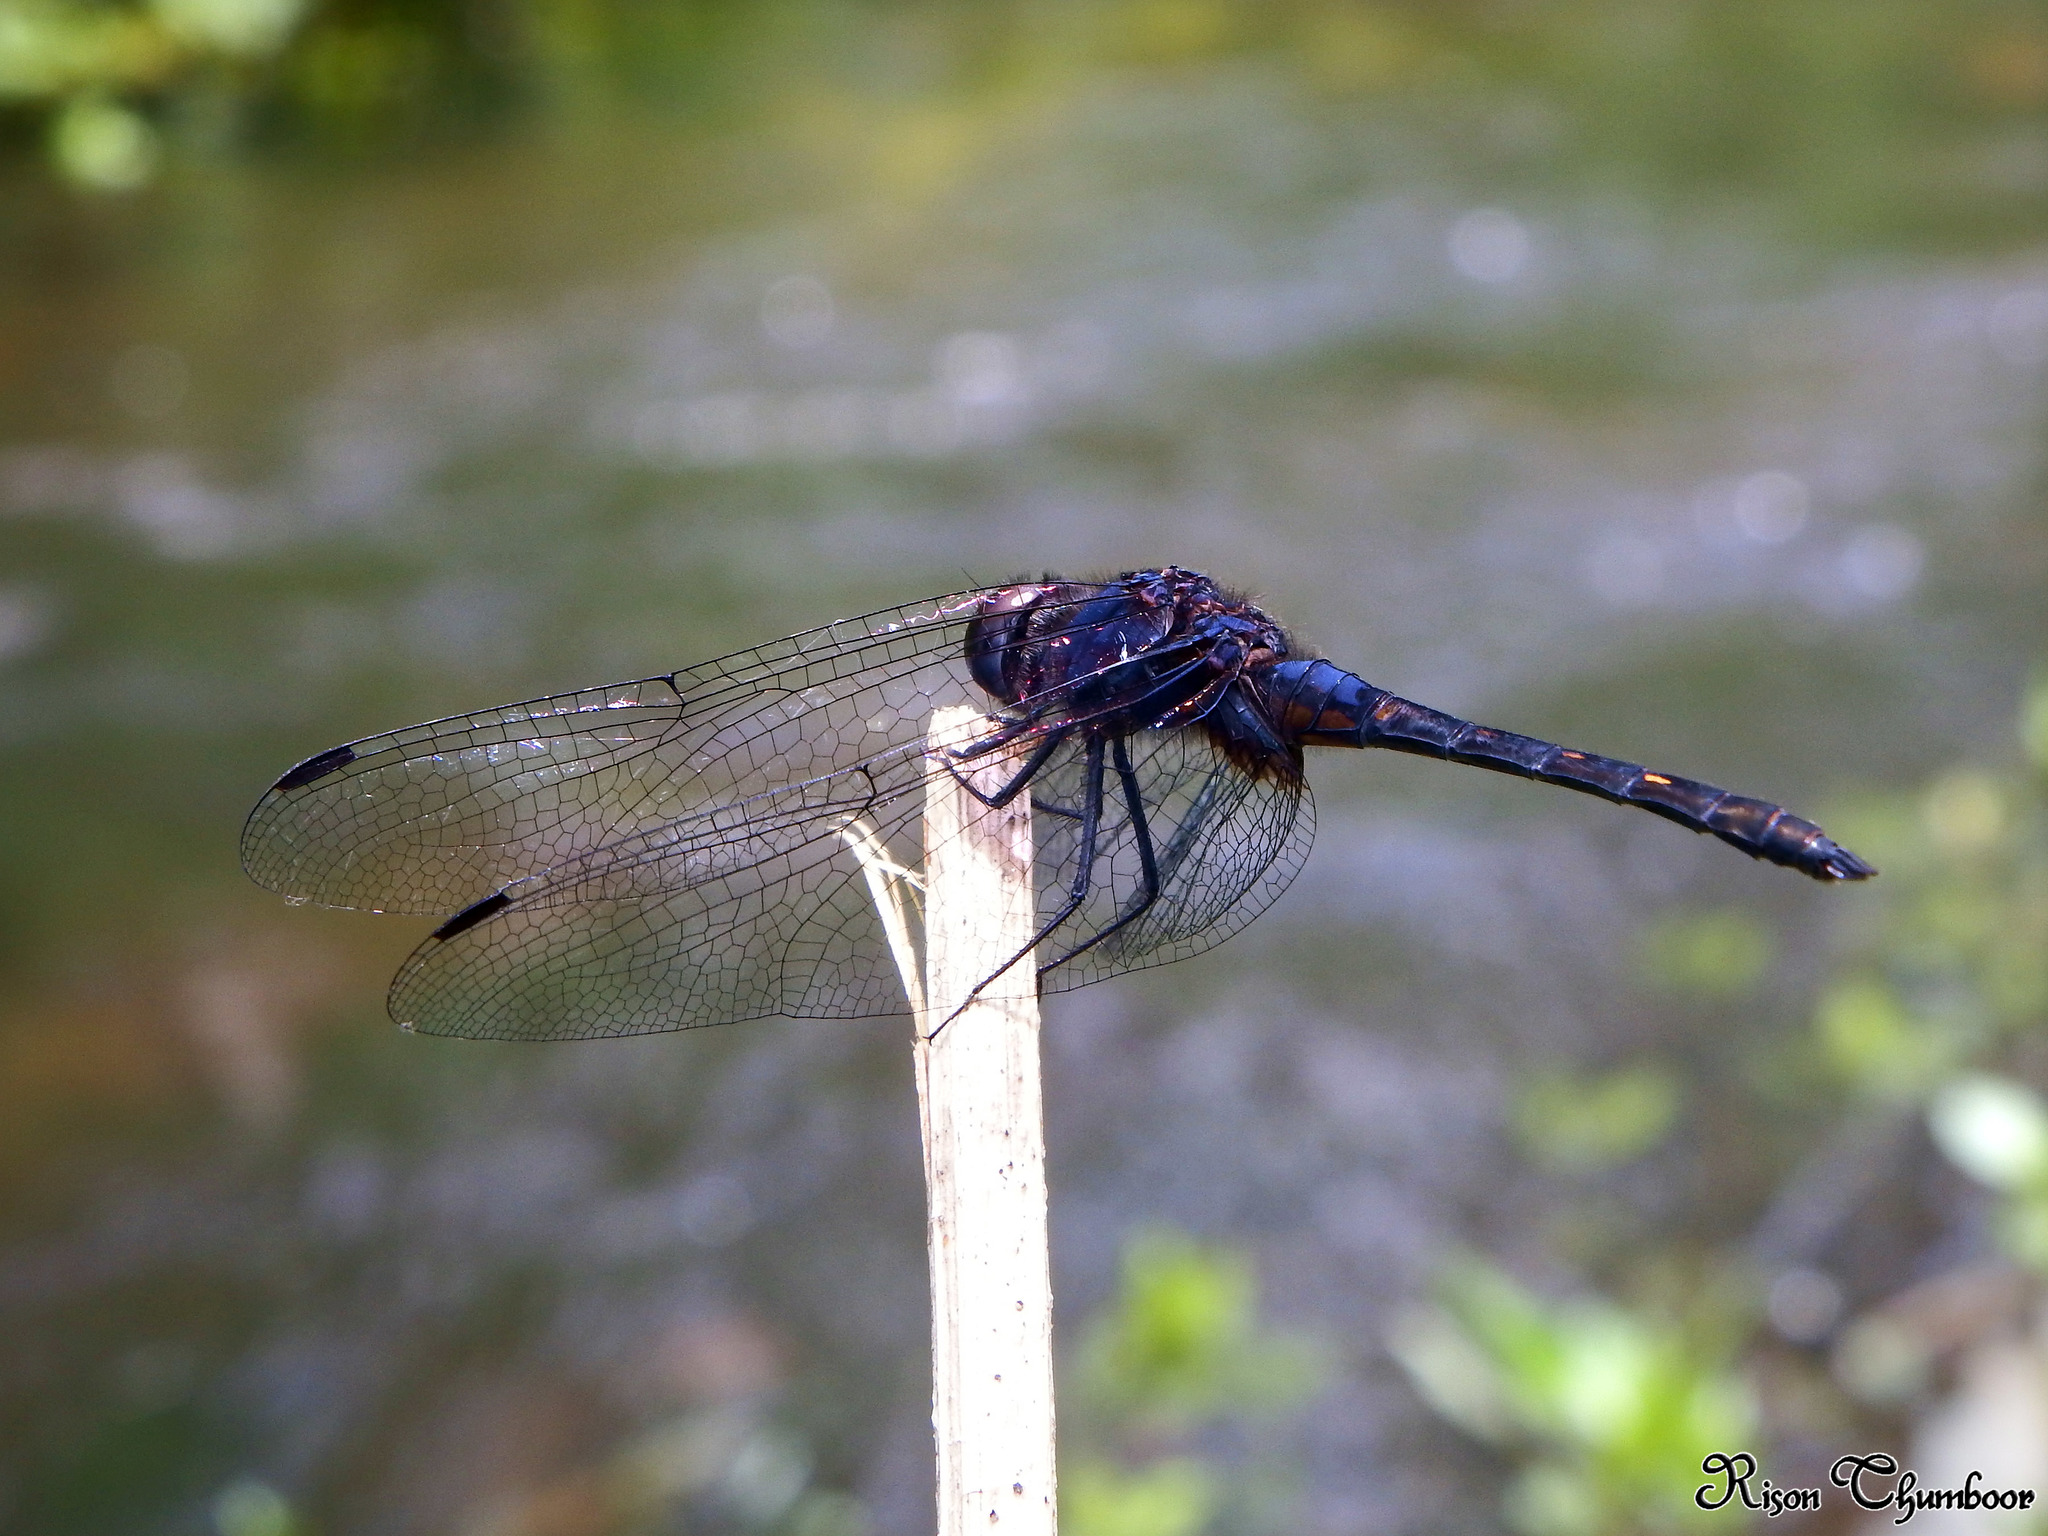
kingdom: Animalia
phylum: Arthropoda
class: Insecta
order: Odonata
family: Libellulidae
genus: Trithemis
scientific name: Trithemis festiva
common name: Indigo dropwing
